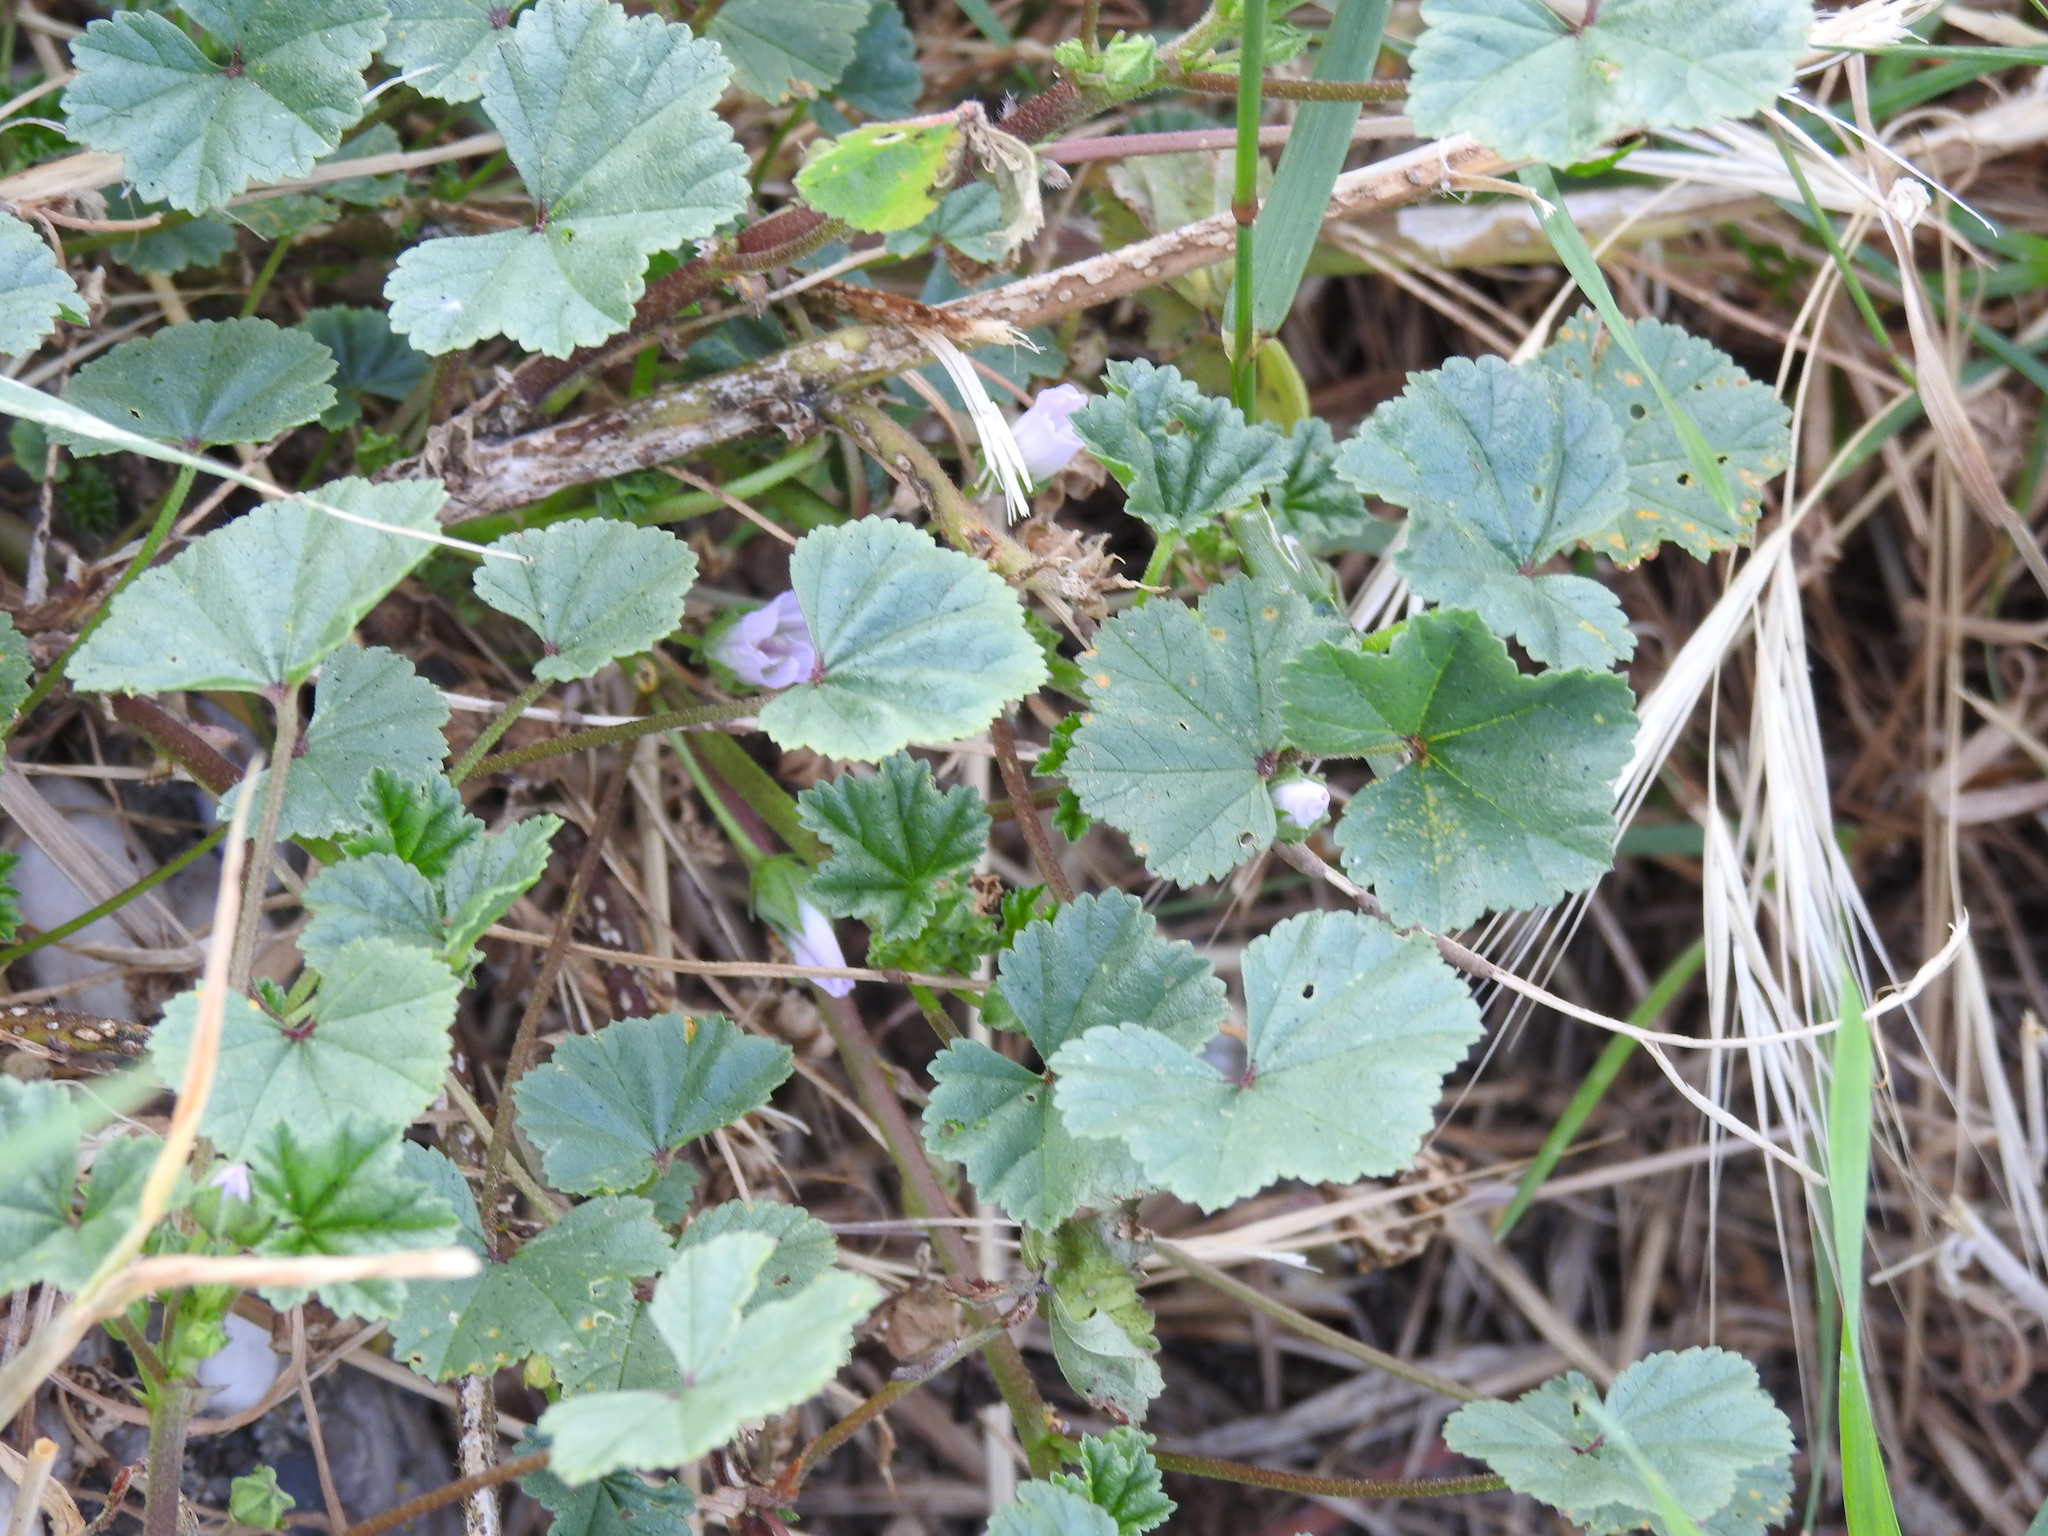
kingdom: Plantae
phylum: Tracheophyta
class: Magnoliopsida
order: Malvales
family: Malvaceae
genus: Malva
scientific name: Malva neglecta
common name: Common mallow
